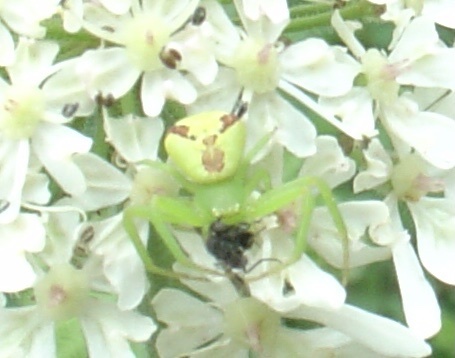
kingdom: Animalia
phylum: Arthropoda
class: Arachnida
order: Araneae
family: Thomisidae
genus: Ebrechtella
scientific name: Ebrechtella tricuspidata
